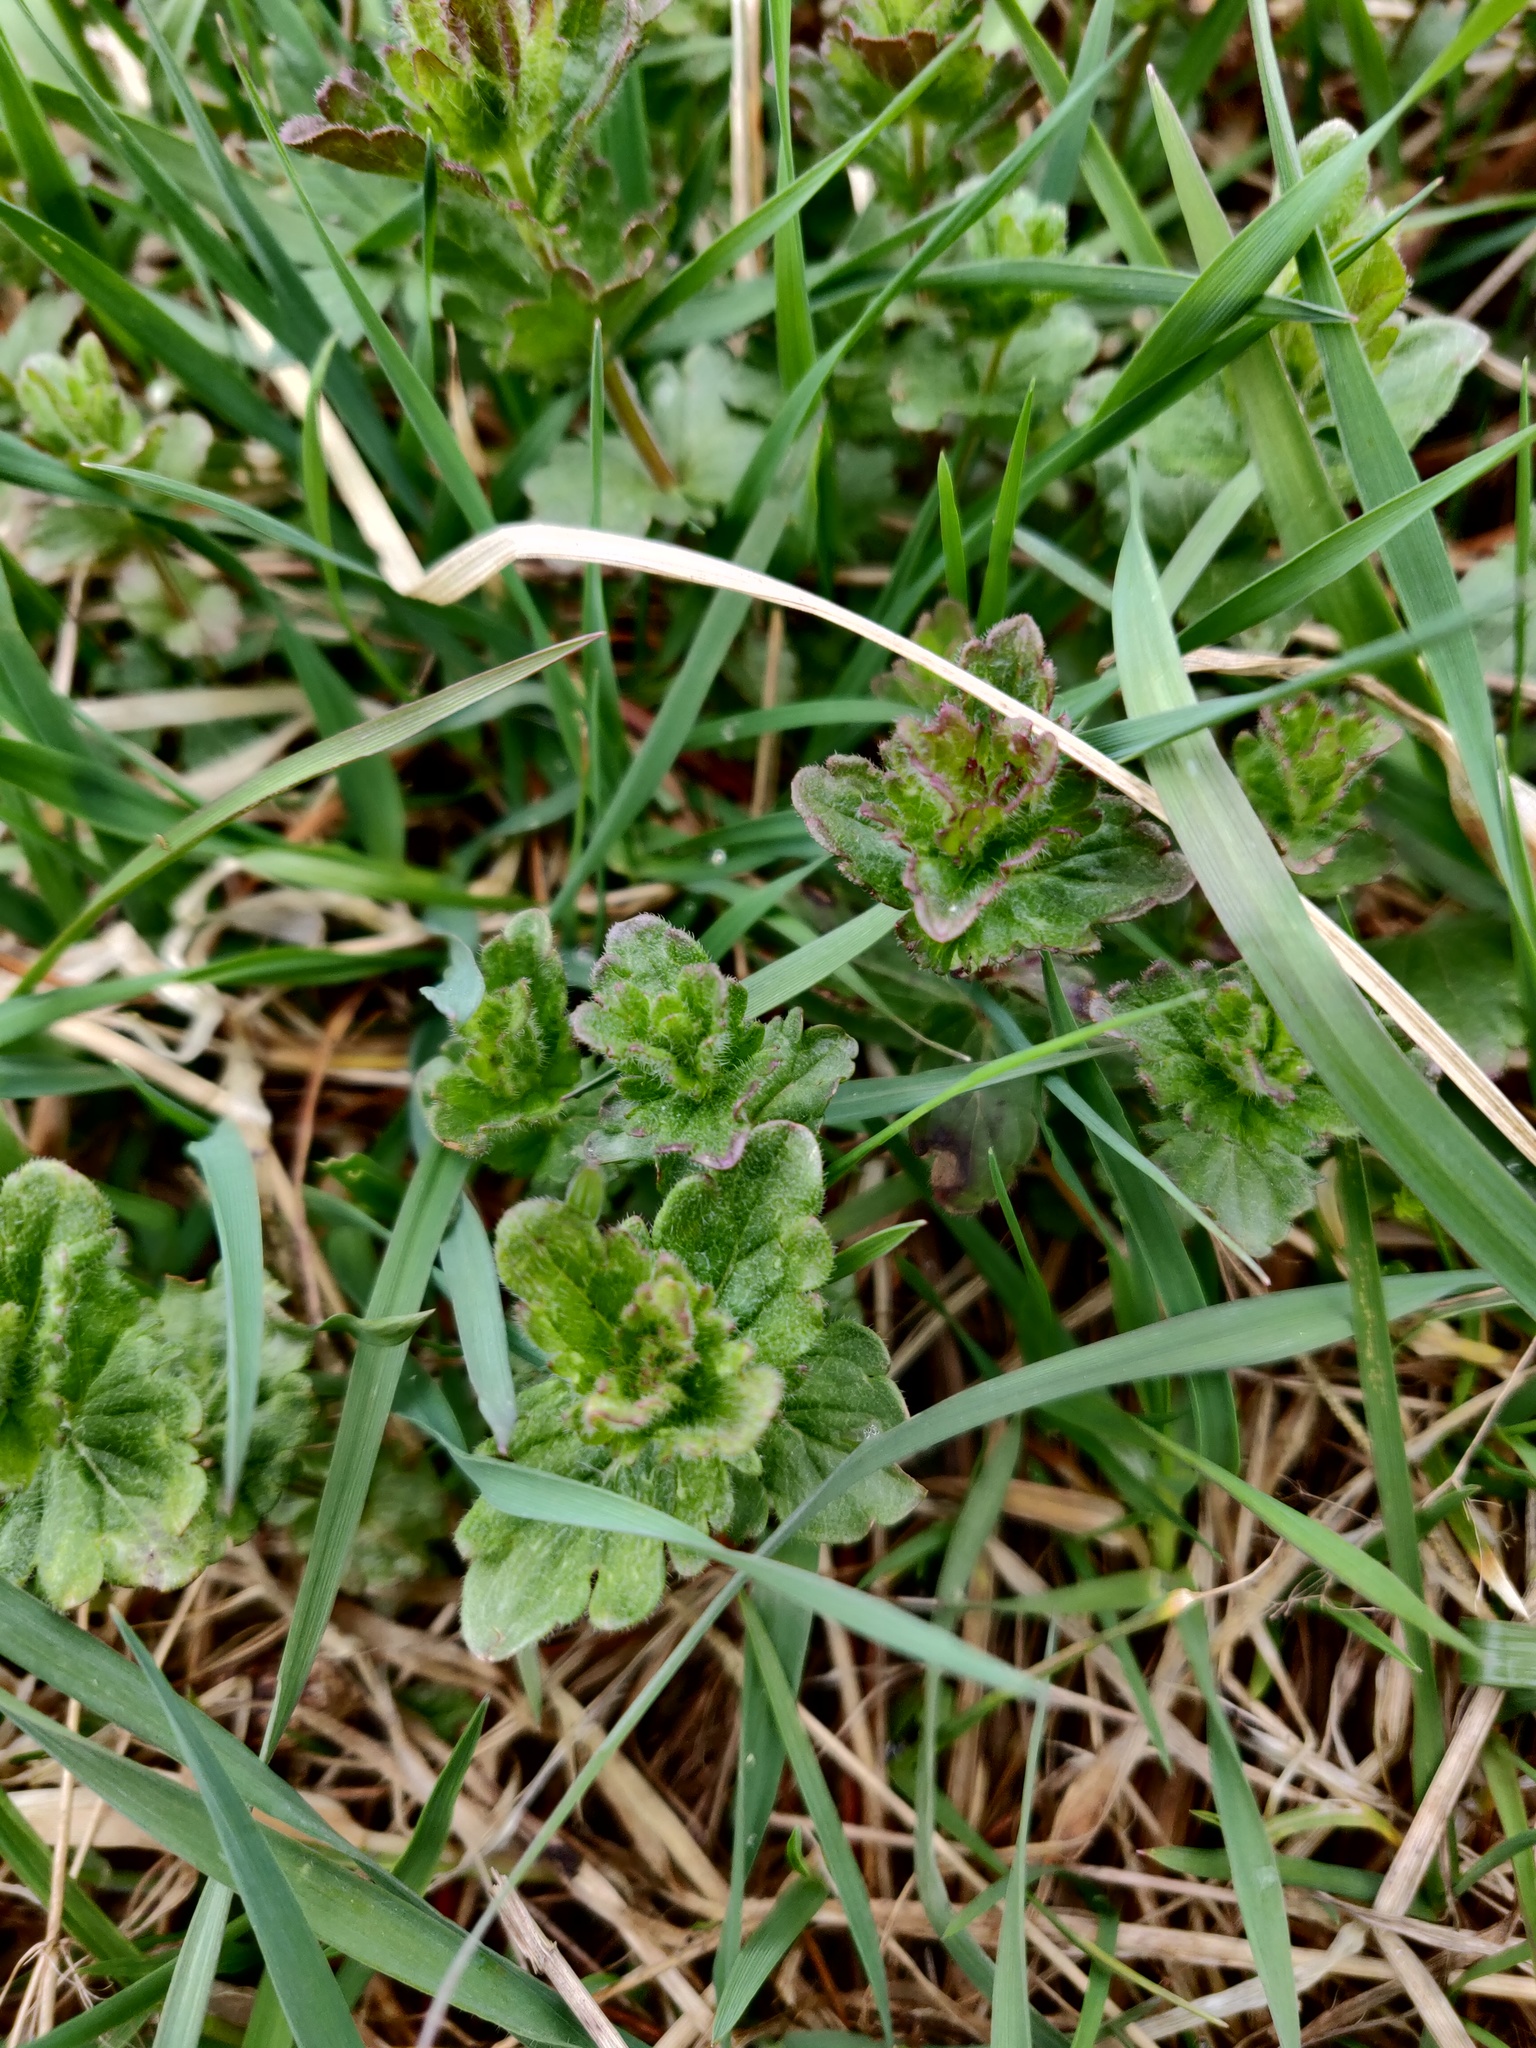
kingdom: Plantae
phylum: Tracheophyta
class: Magnoliopsida
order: Lamiales
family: Plantaginaceae
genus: Veronica
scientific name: Veronica chamaedrys
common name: Germander speedwell
